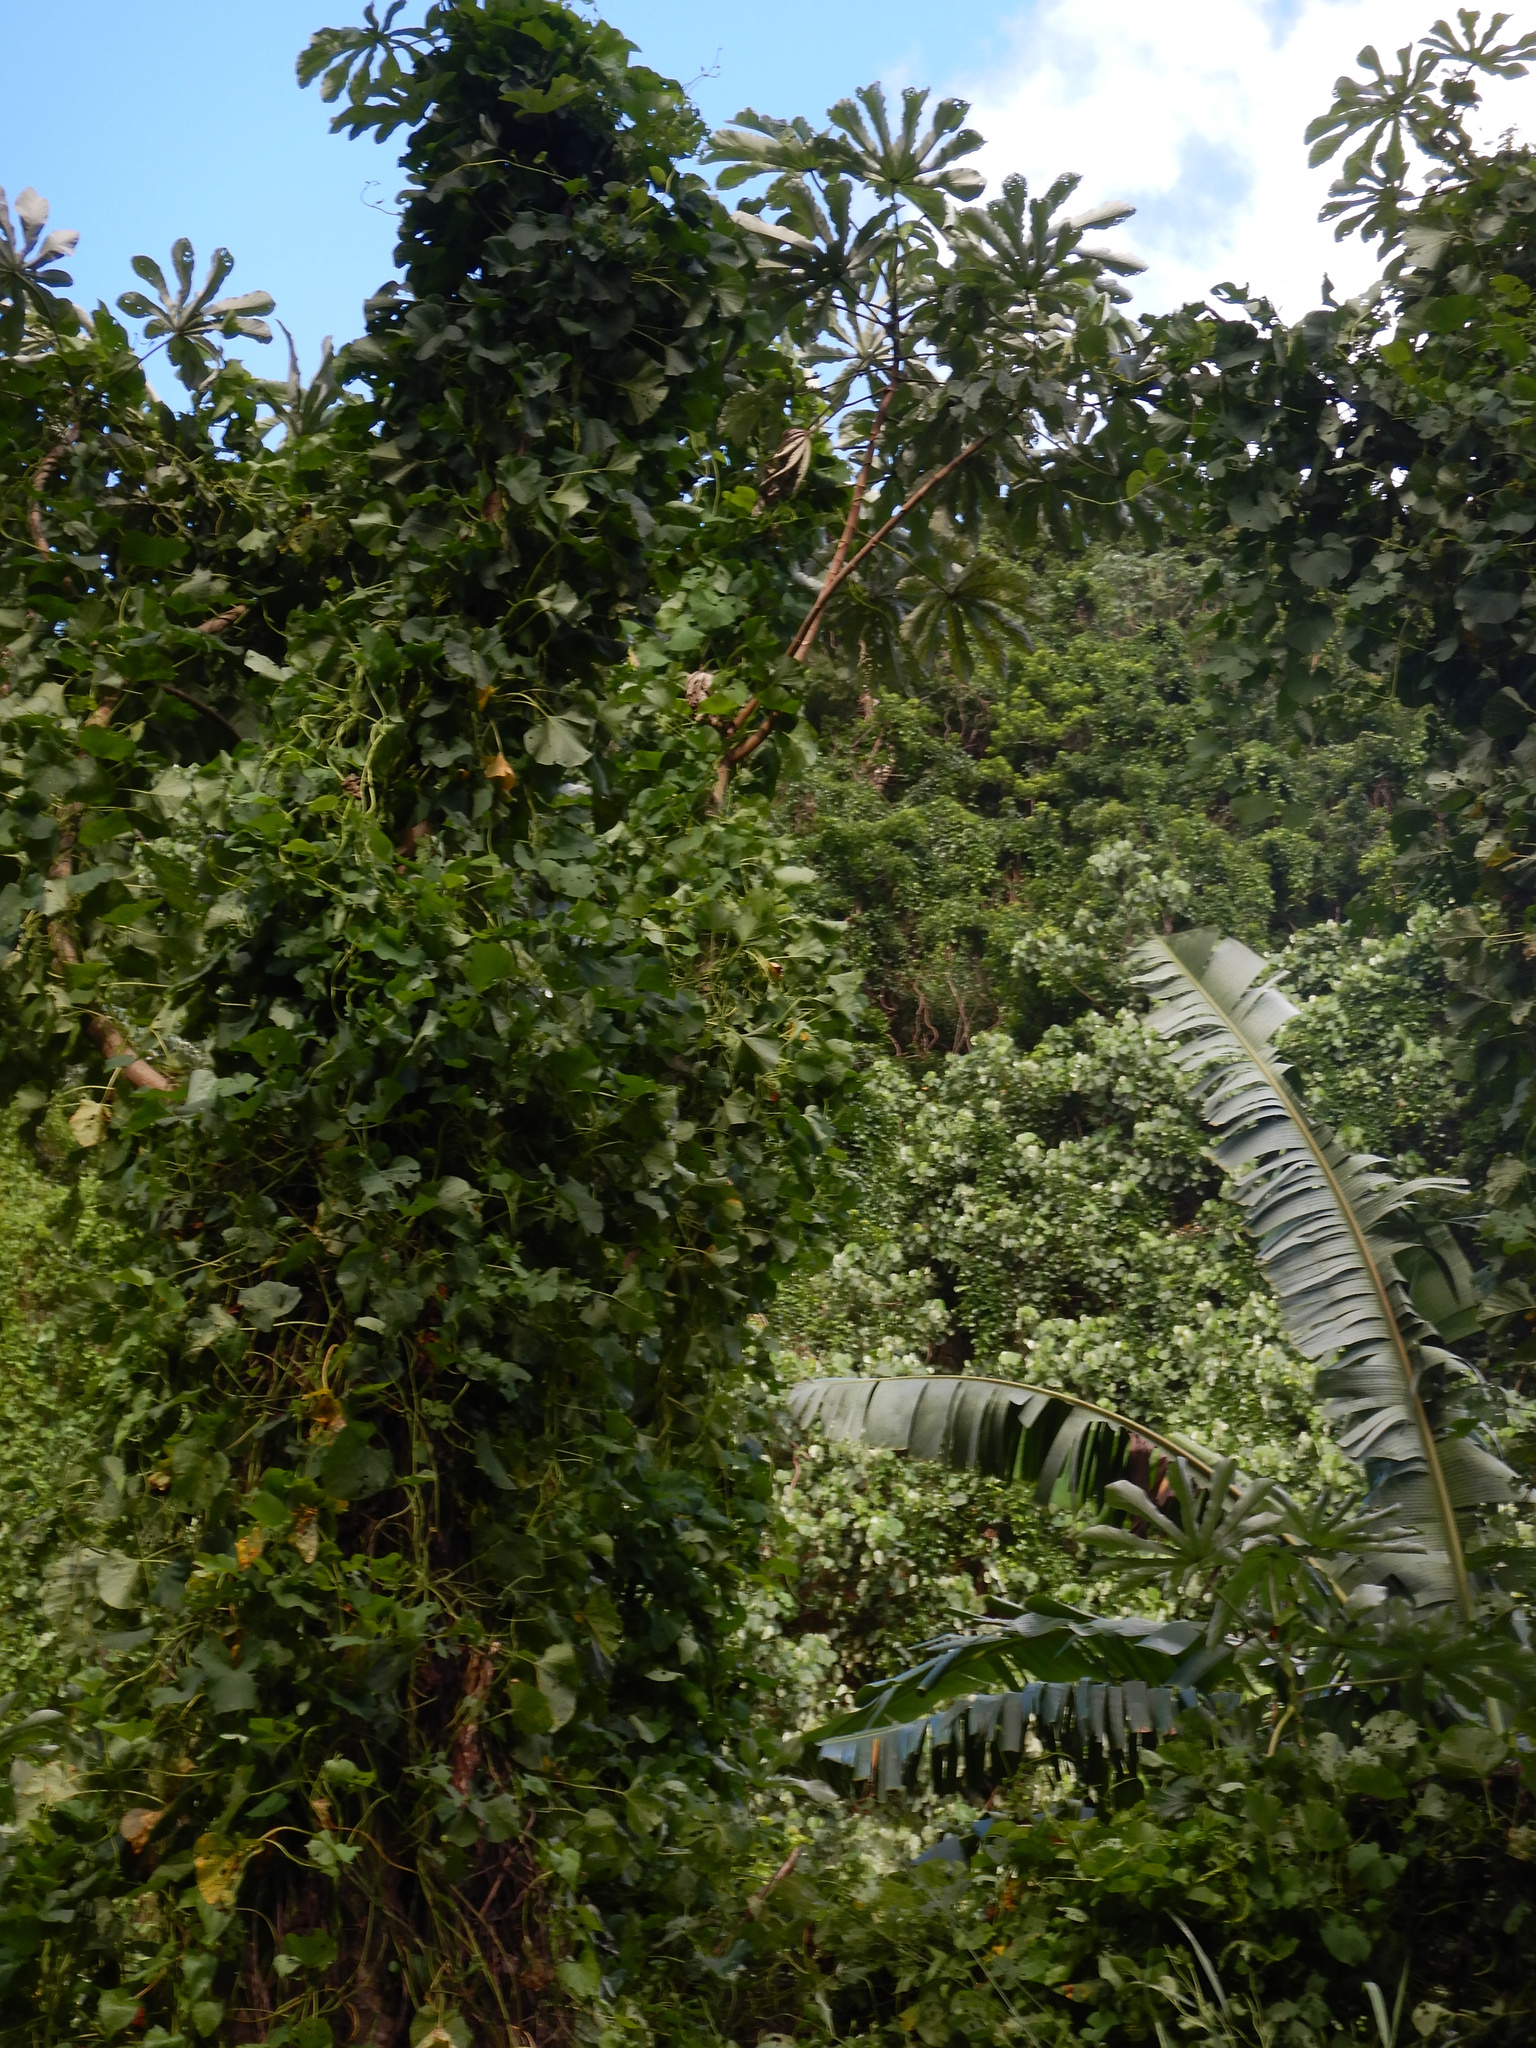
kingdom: Plantae
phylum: Tracheophyta
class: Magnoliopsida
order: Rosales
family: Urticaceae
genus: Cecropia
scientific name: Cecropia pachystachya
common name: Ambay pumpwood
